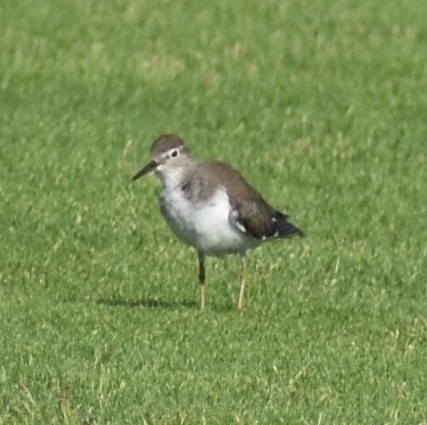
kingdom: Animalia
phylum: Chordata
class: Aves
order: Charadriiformes
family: Scolopacidae
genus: Actitis
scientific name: Actitis hypoleucos
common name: Common sandpiper
